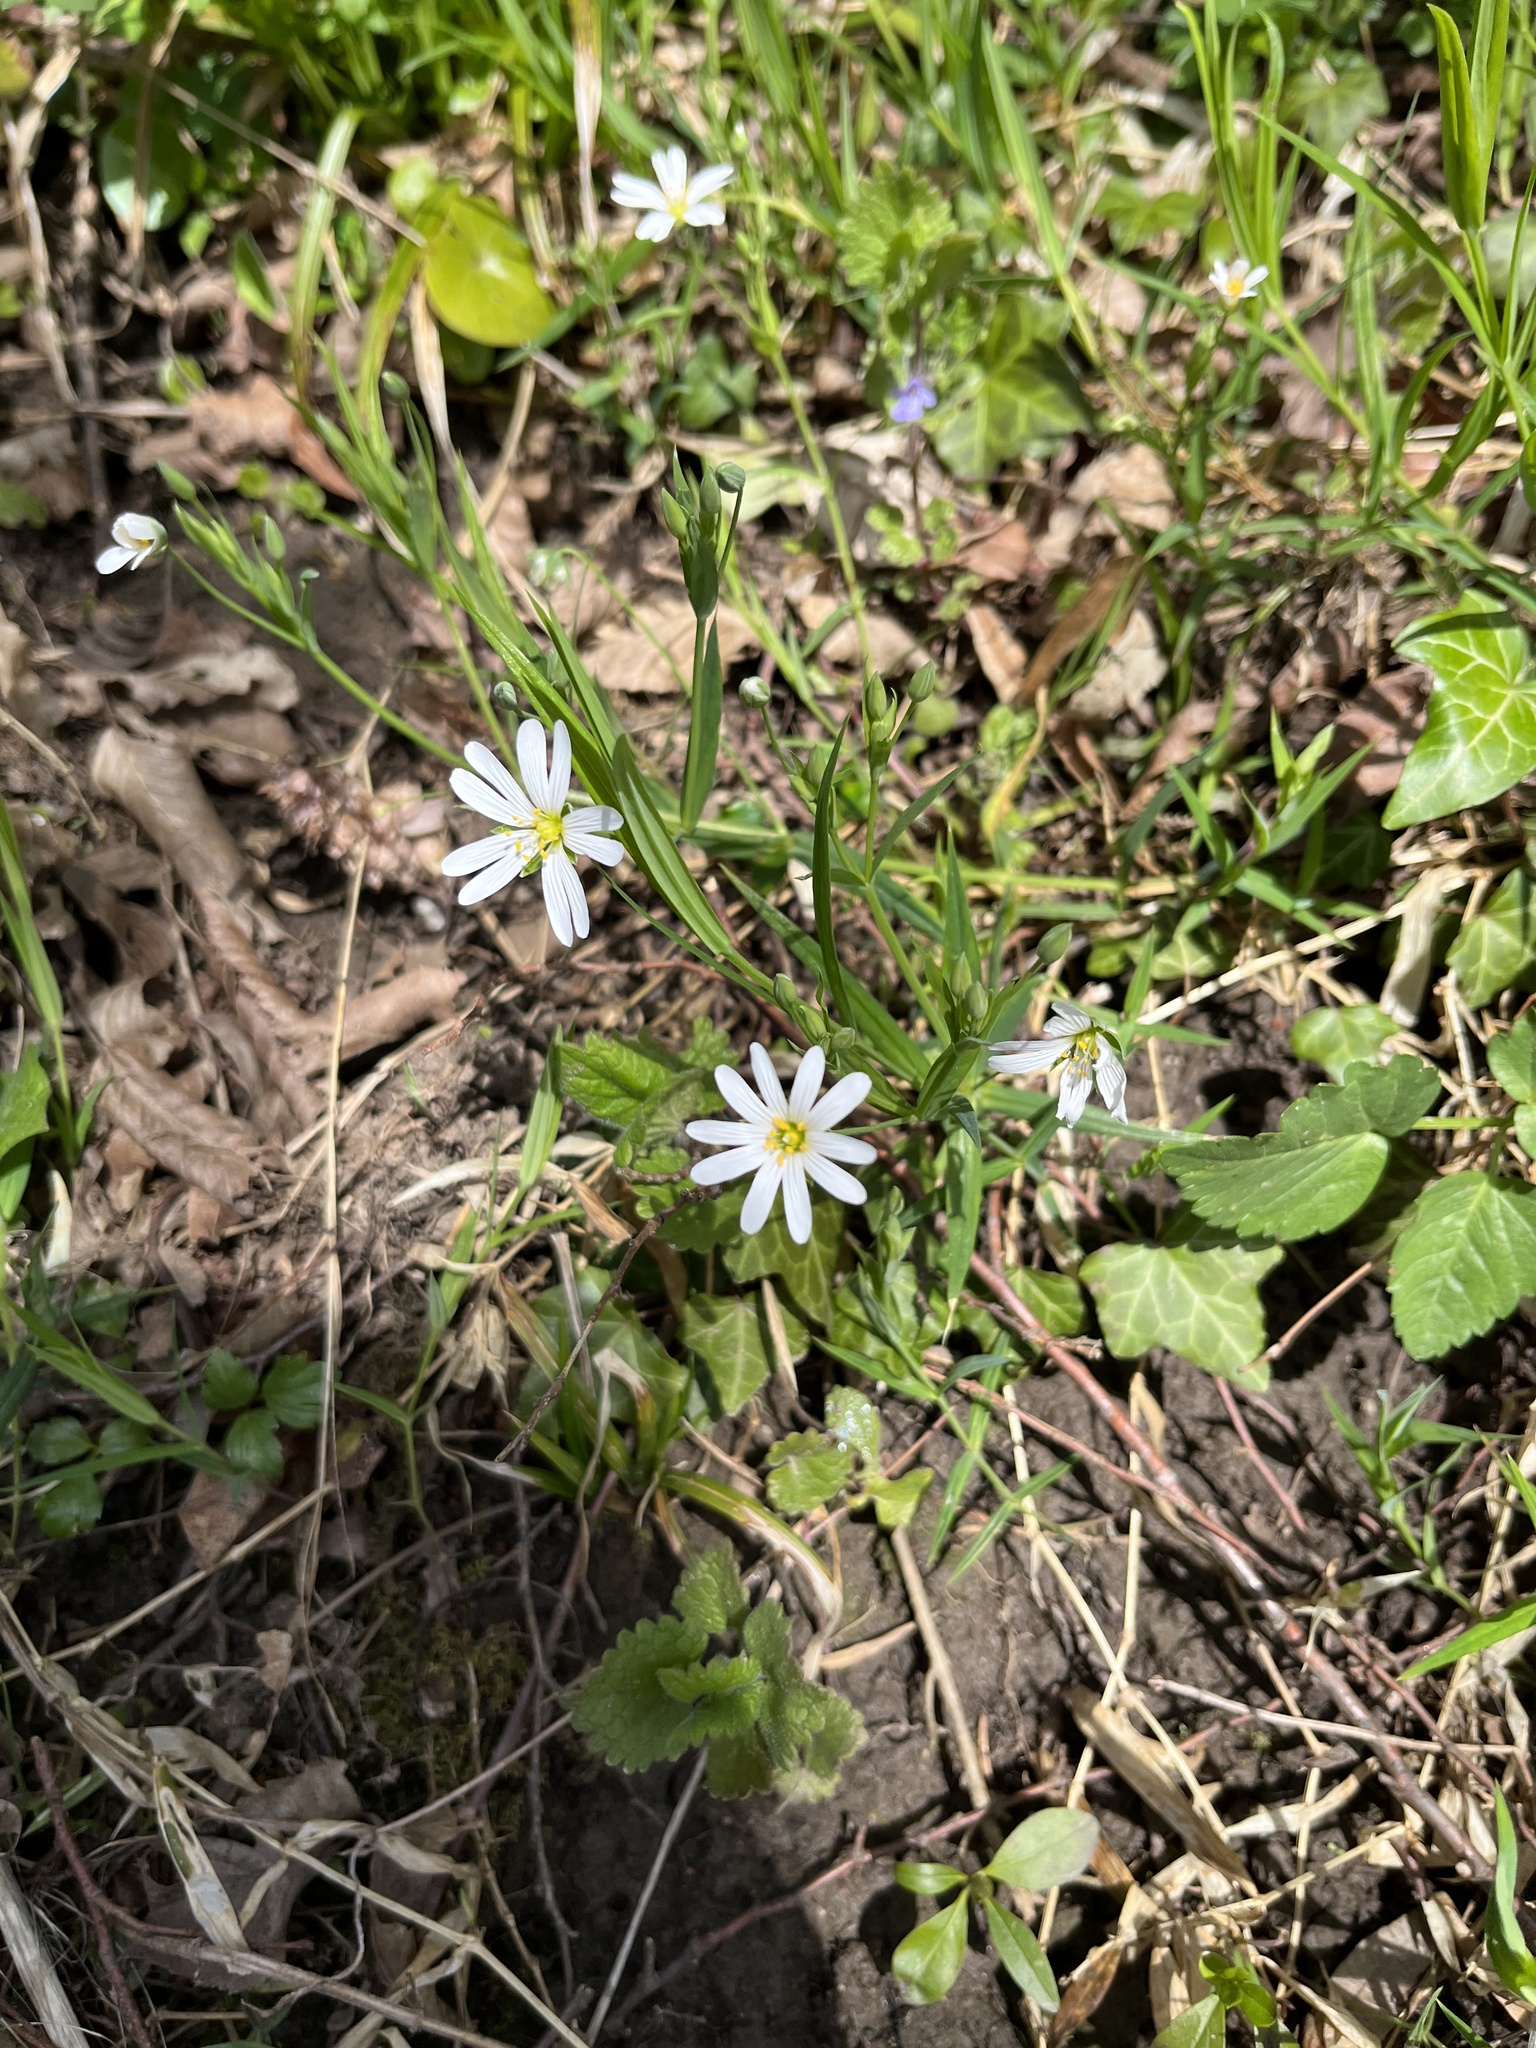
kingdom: Plantae
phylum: Tracheophyta
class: Magnoliopsida
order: Caryophyllales
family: Caryophyllaceae
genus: Rabelera
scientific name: Rabelera holostea
